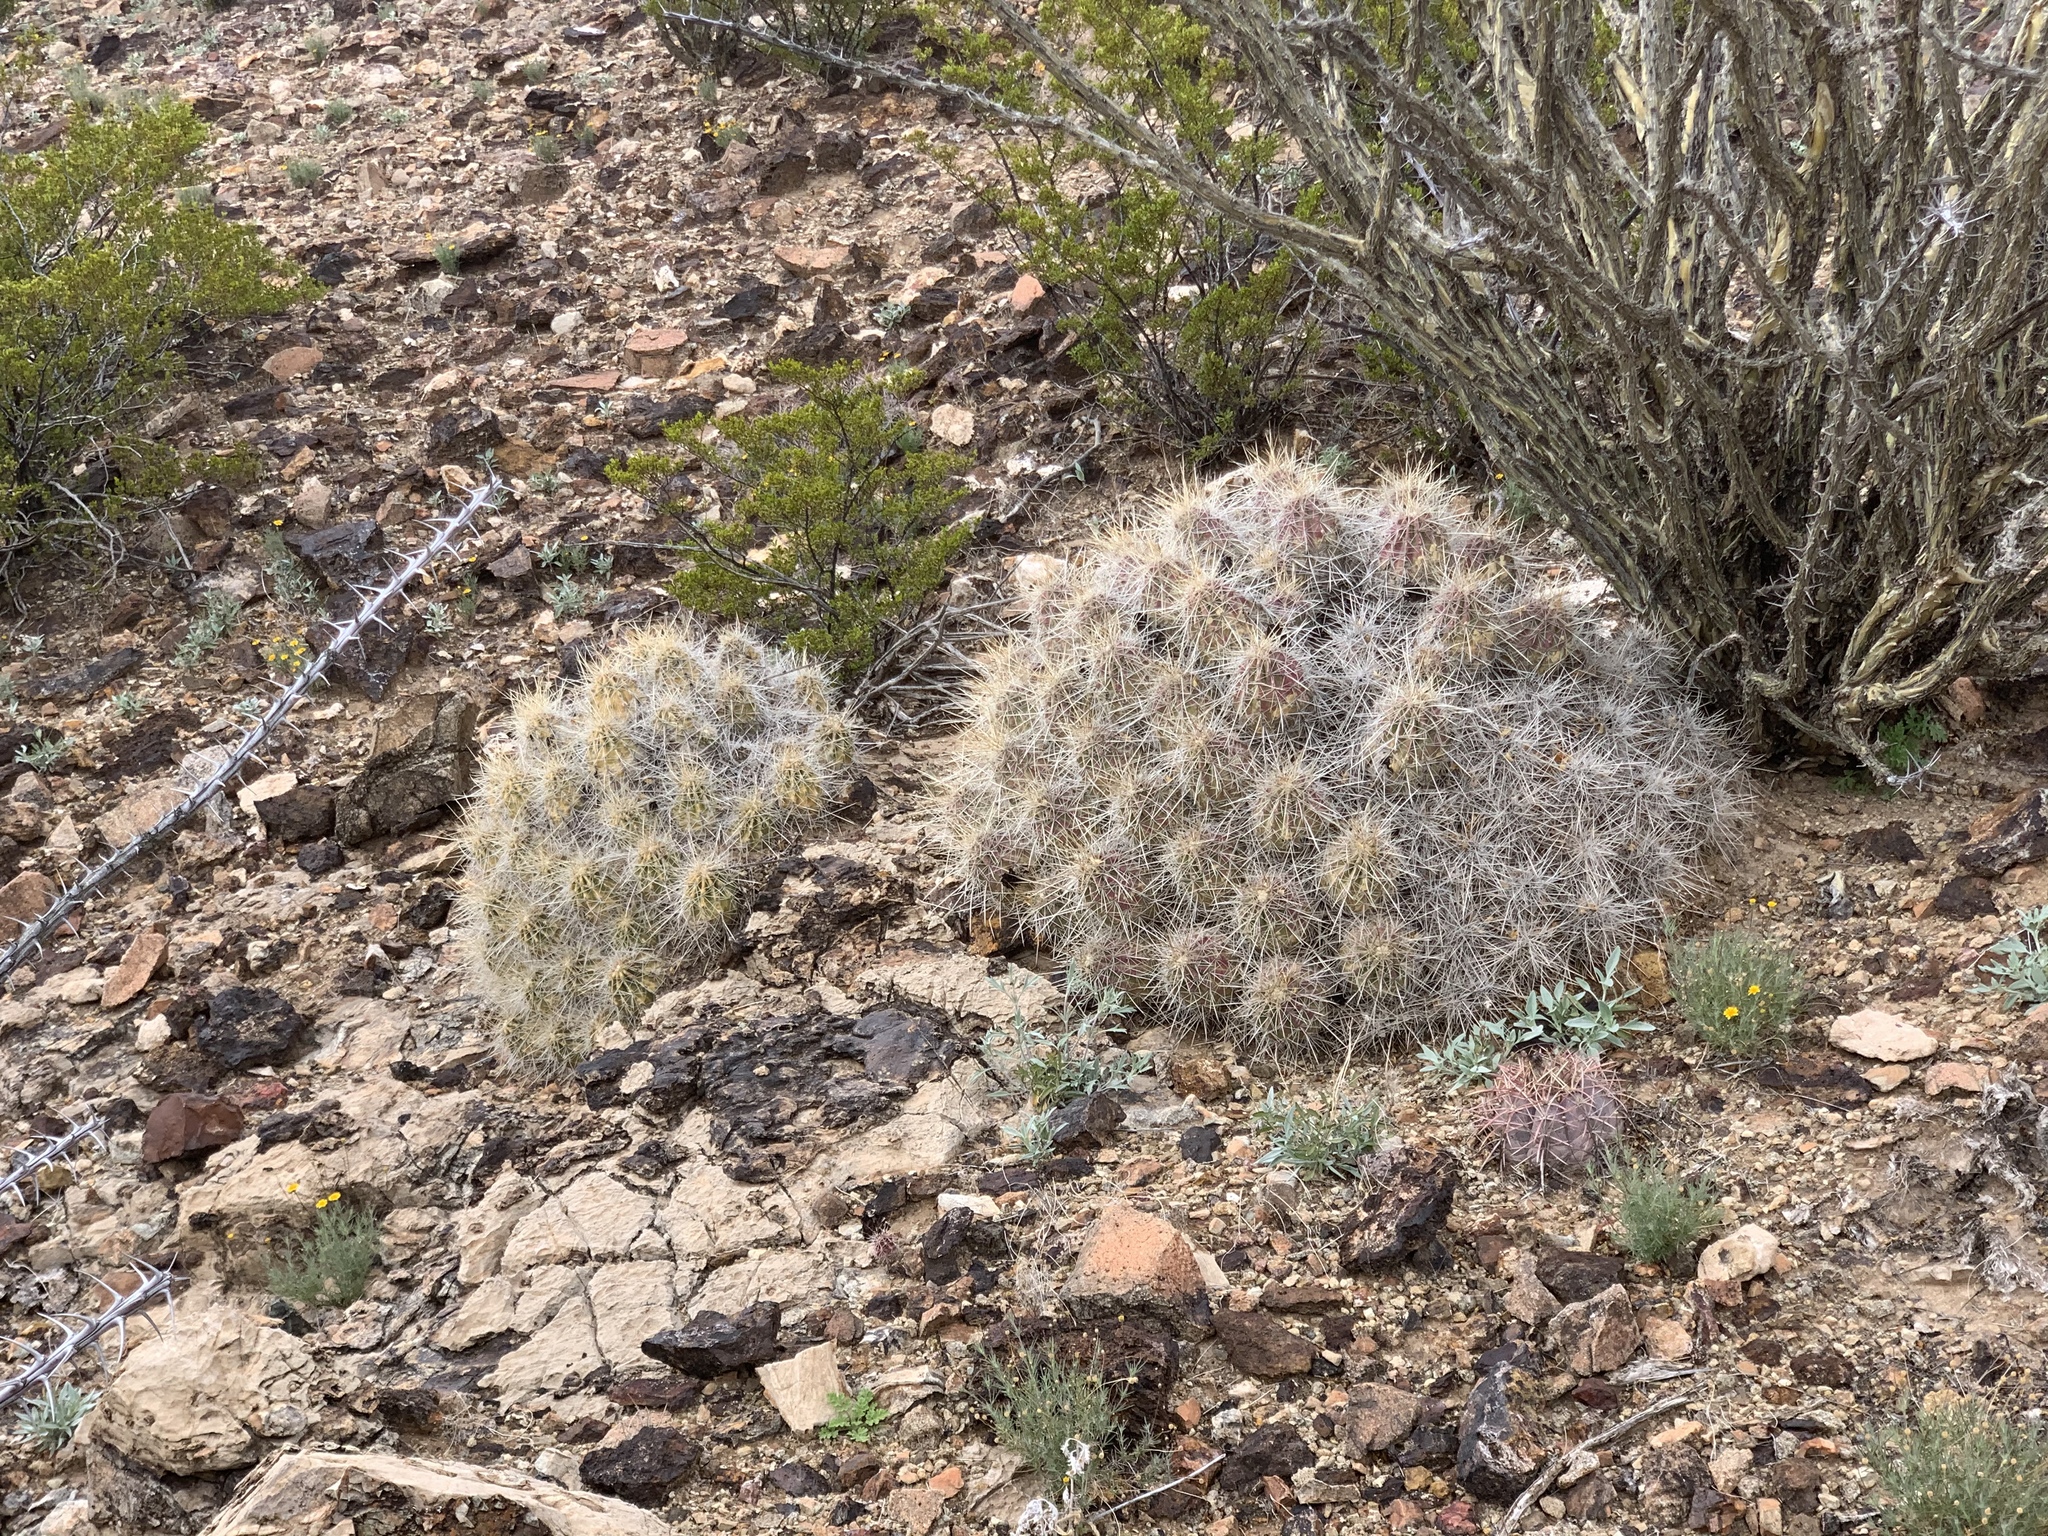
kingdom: Plantae
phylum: Tracheophyta
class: Magnoliopsida
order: Caryophyllales
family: Cactaceae
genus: Echinocereus
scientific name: Echinocereus stramineus
